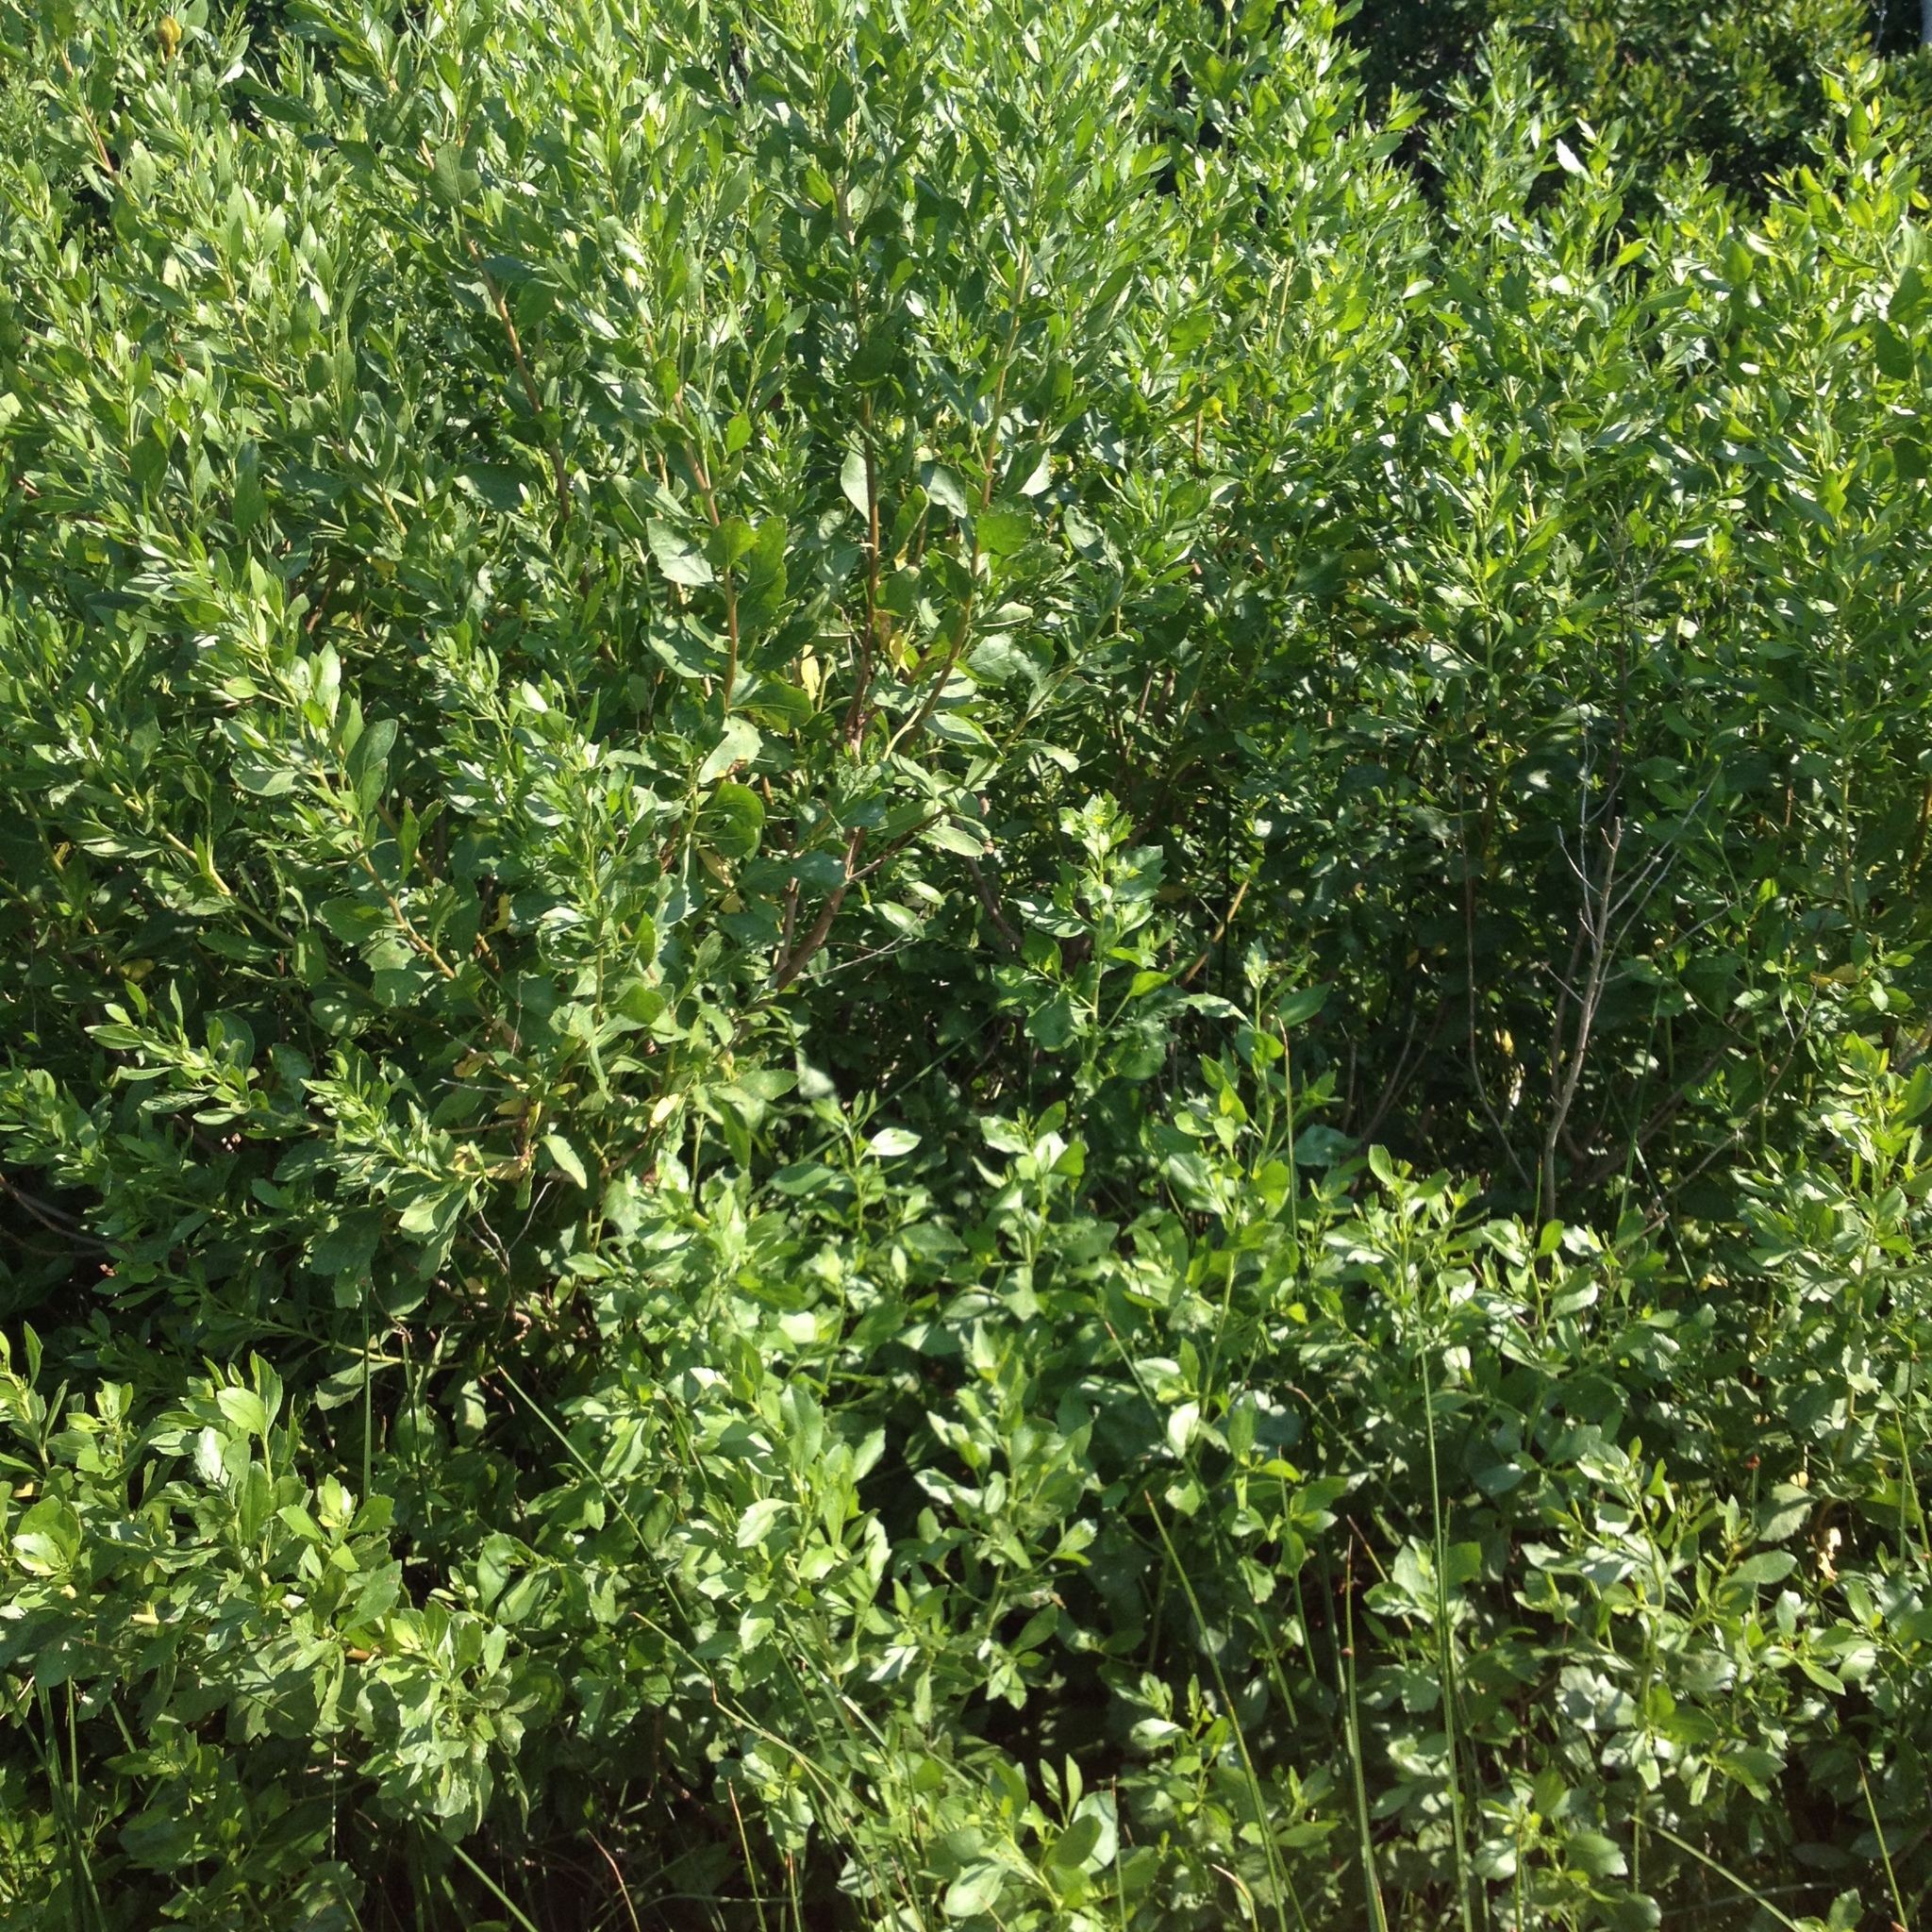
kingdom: Plantae
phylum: Tracheophyta
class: Magnoliopsida
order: Asterales
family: Asteraceae
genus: Baccharis
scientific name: Baccharis halimifolia
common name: Eastern baccharis
